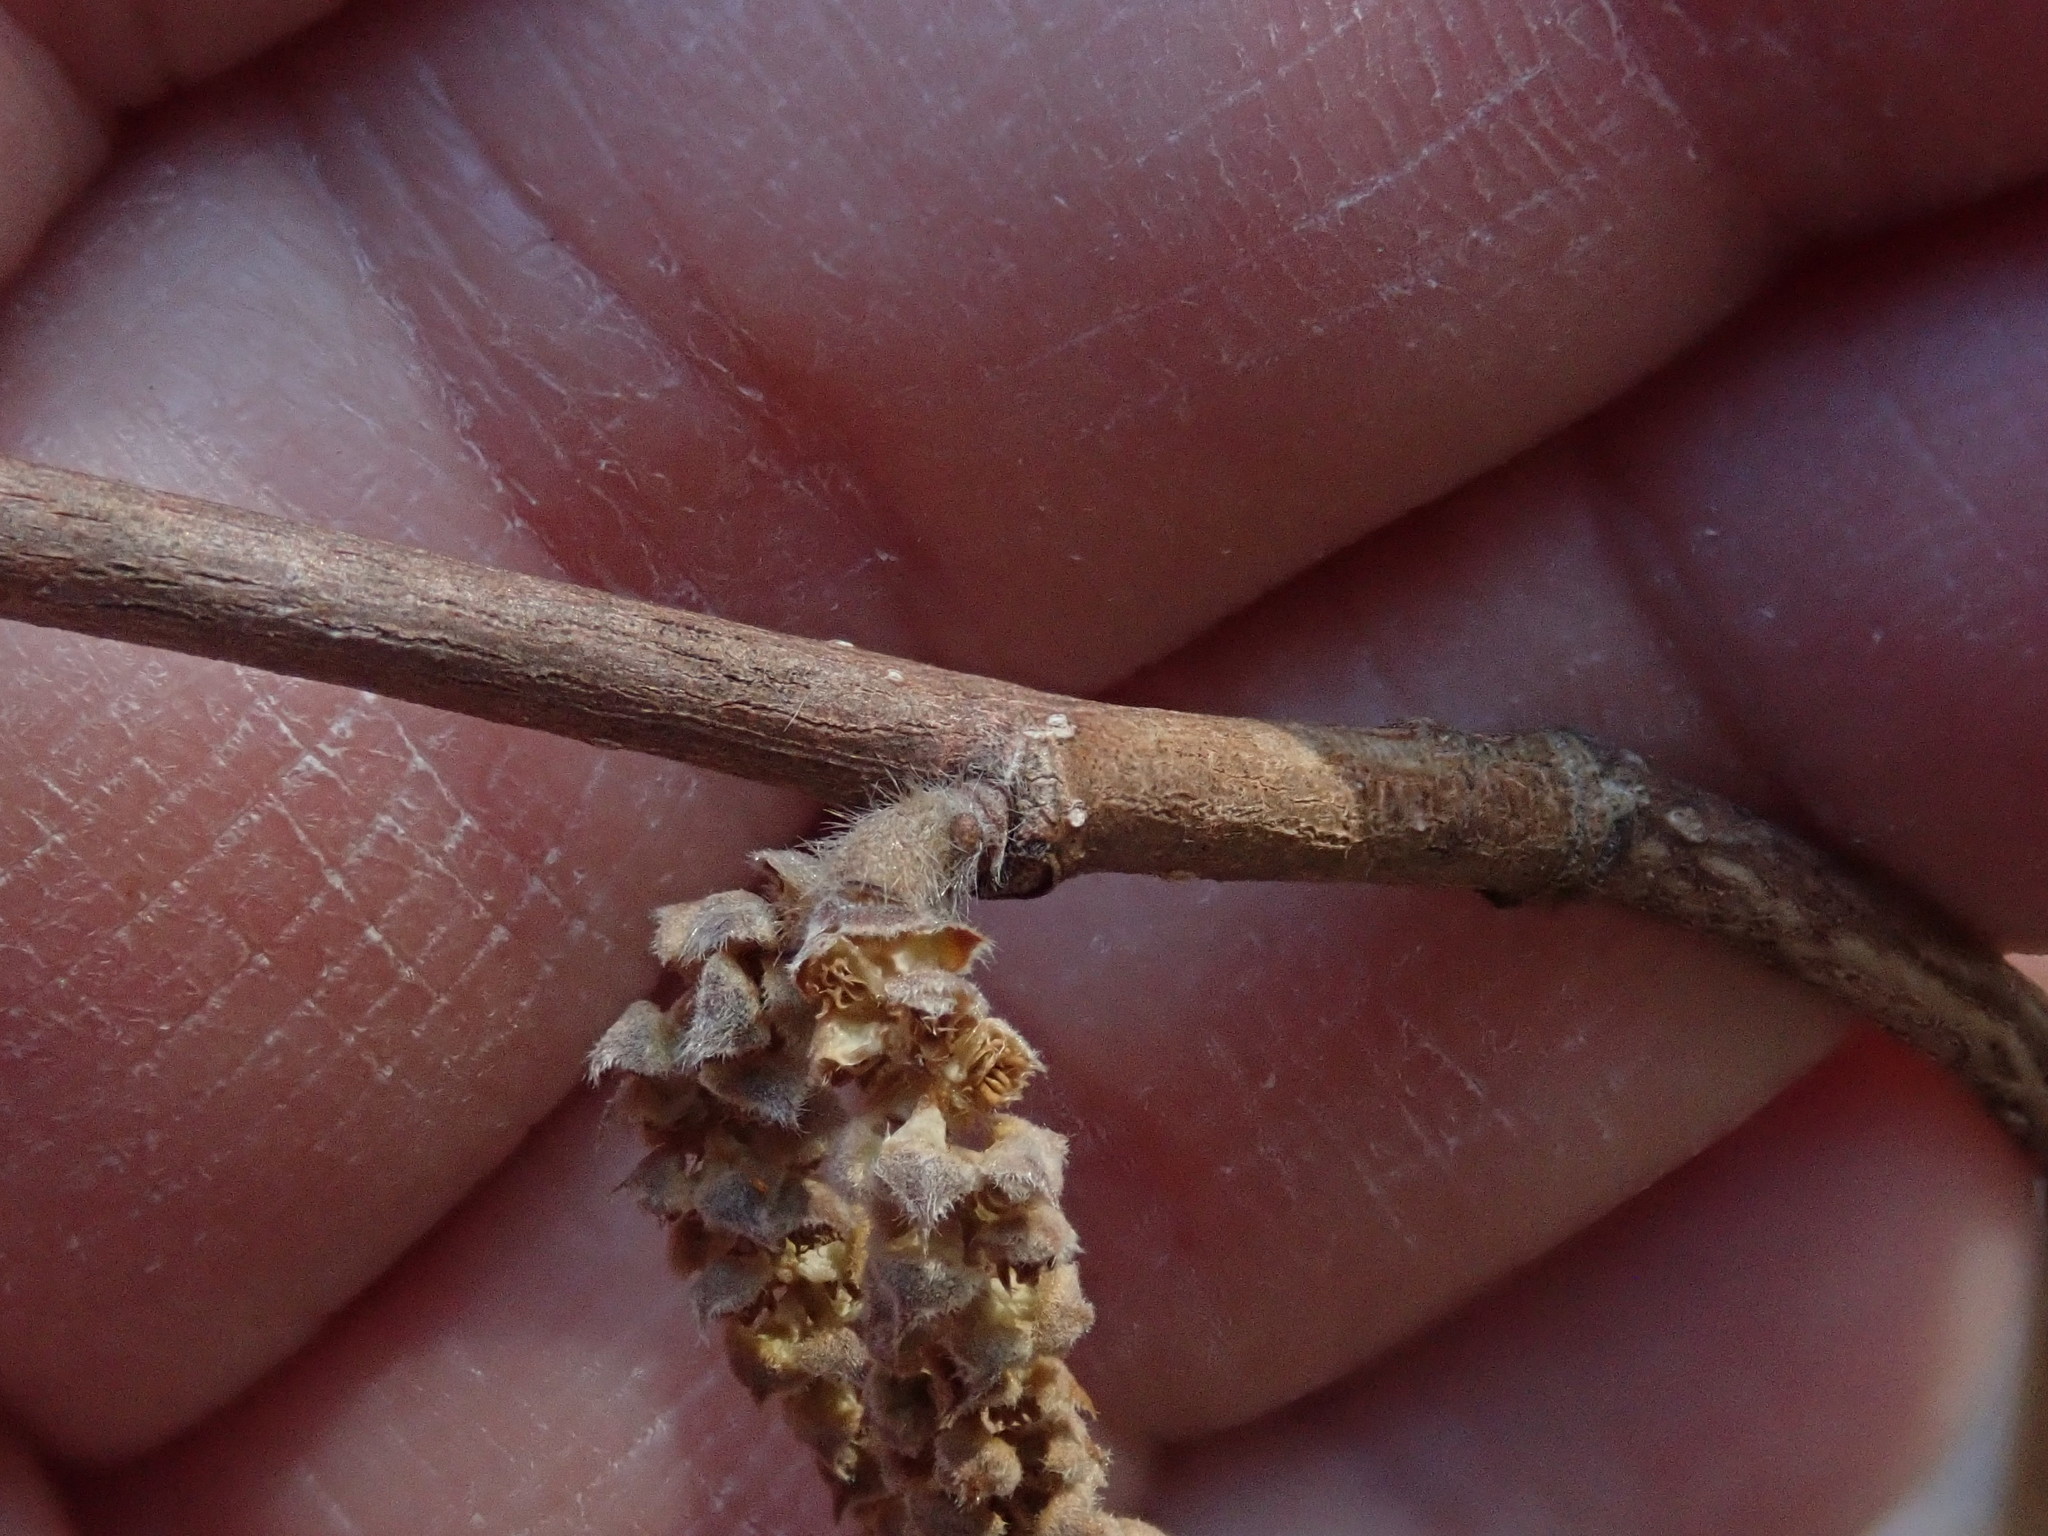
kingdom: Plantae
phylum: Tracheophyta
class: Magnoliopsida
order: Fagales
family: Betulaceae
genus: Corylus
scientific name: Corylus cornuta
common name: Beaked hazel
